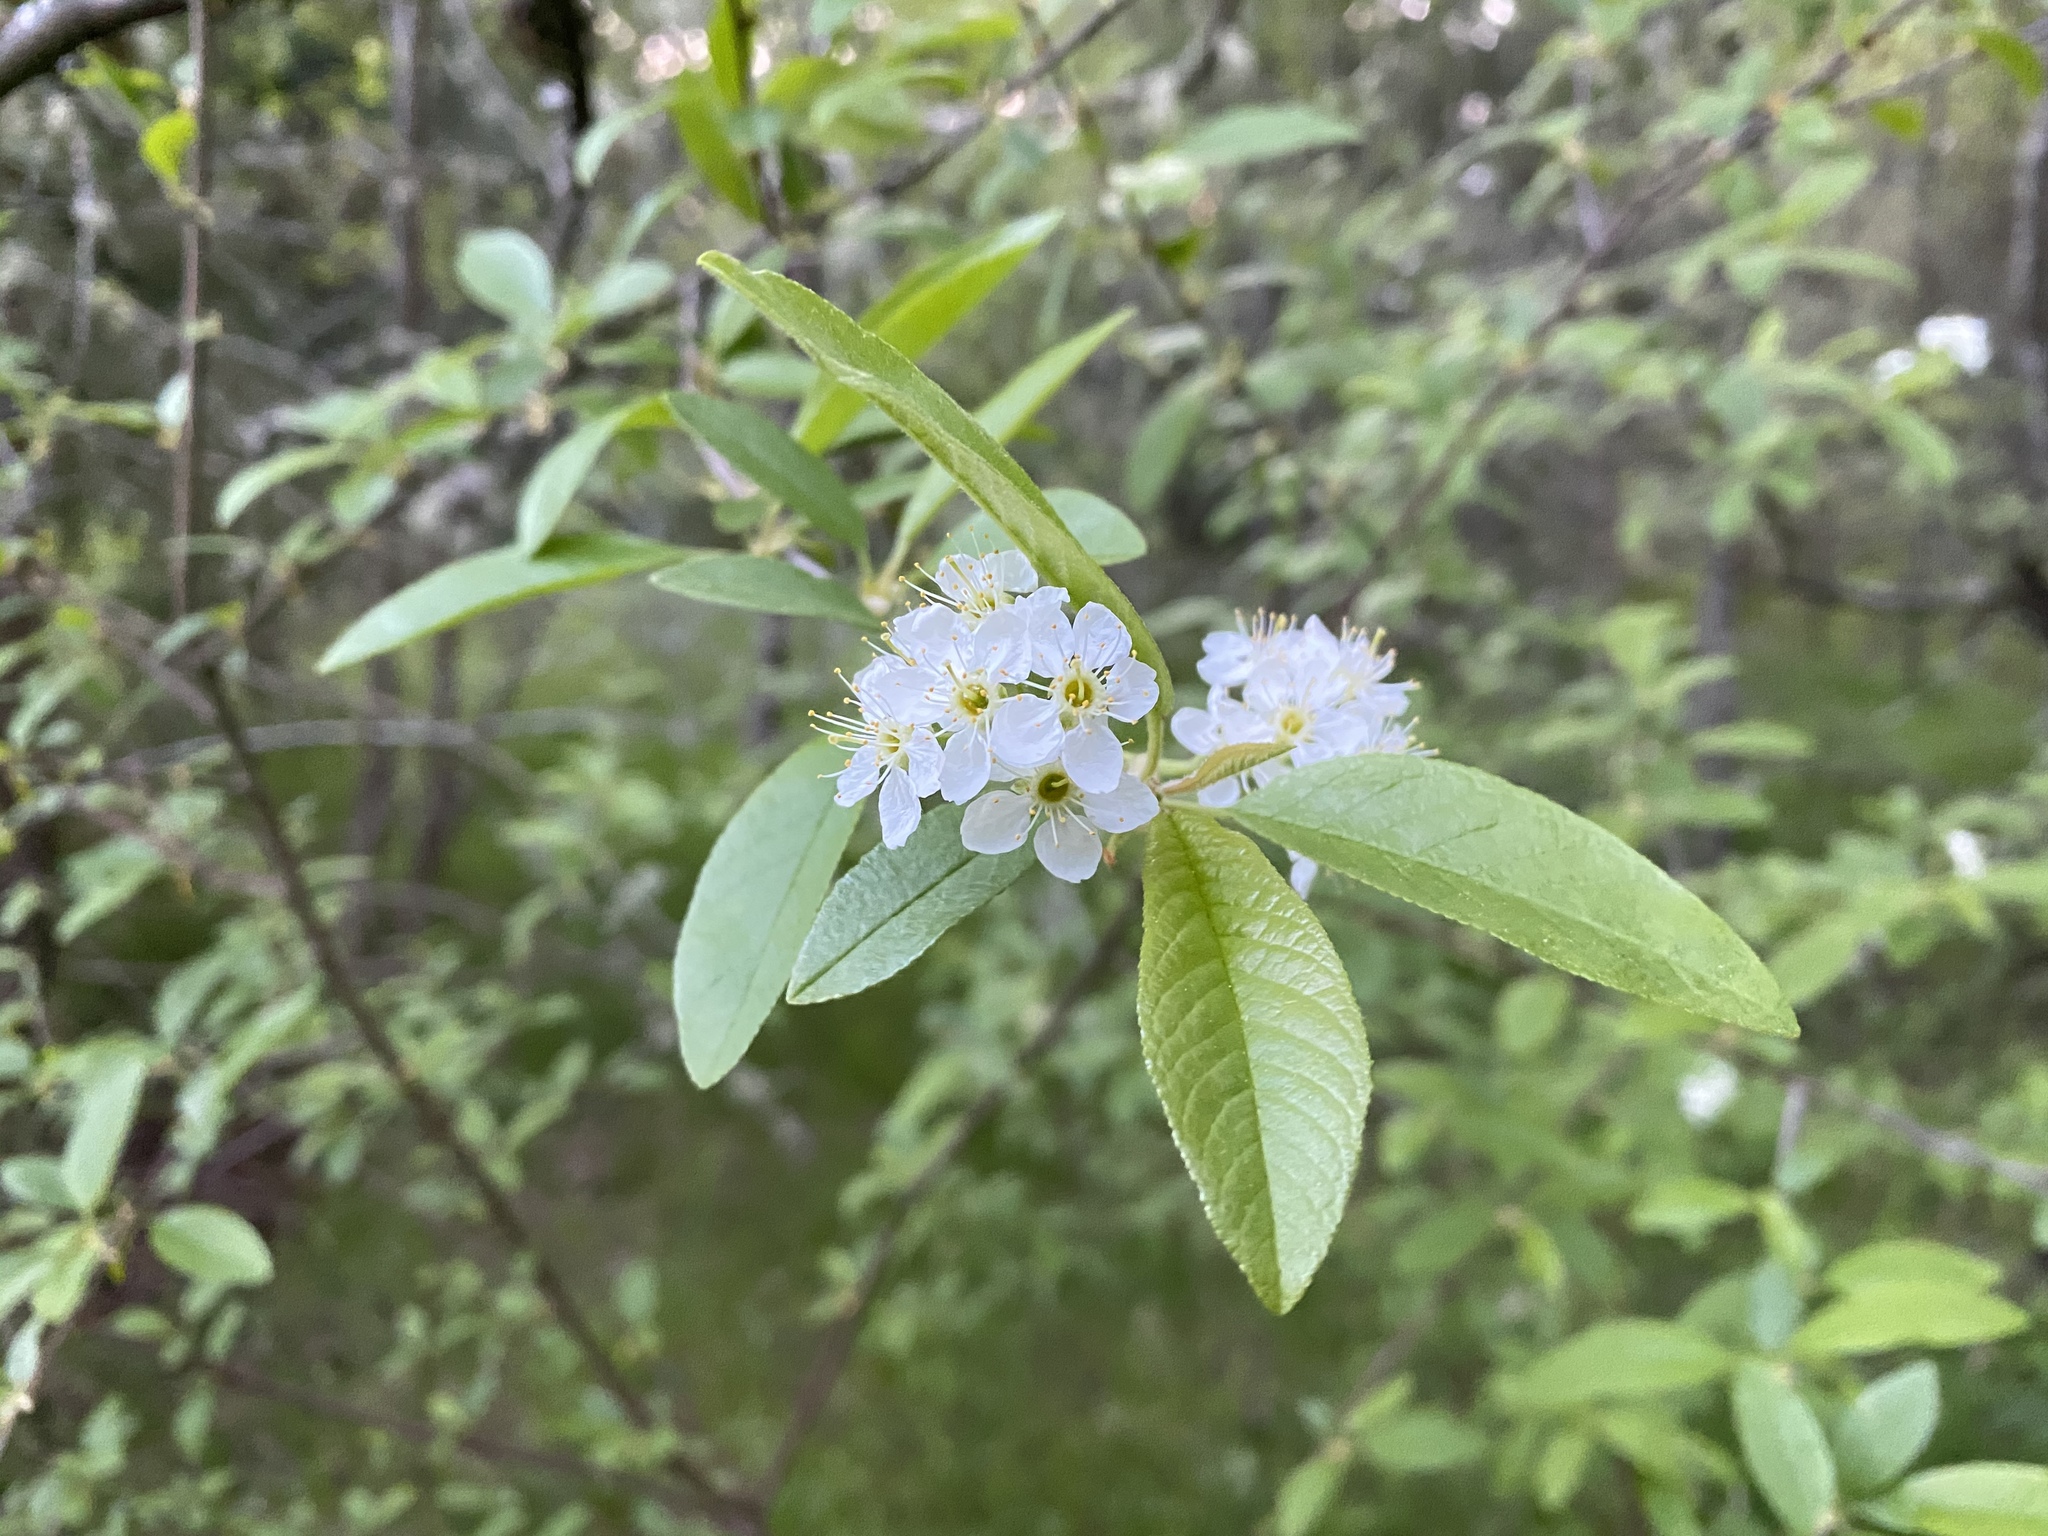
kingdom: Plantae
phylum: Tracheophyta
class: Magnoliopsida
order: Rosales
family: Rosaceae
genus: Prunus
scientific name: Prunus emarginata
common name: Bitter cherry
